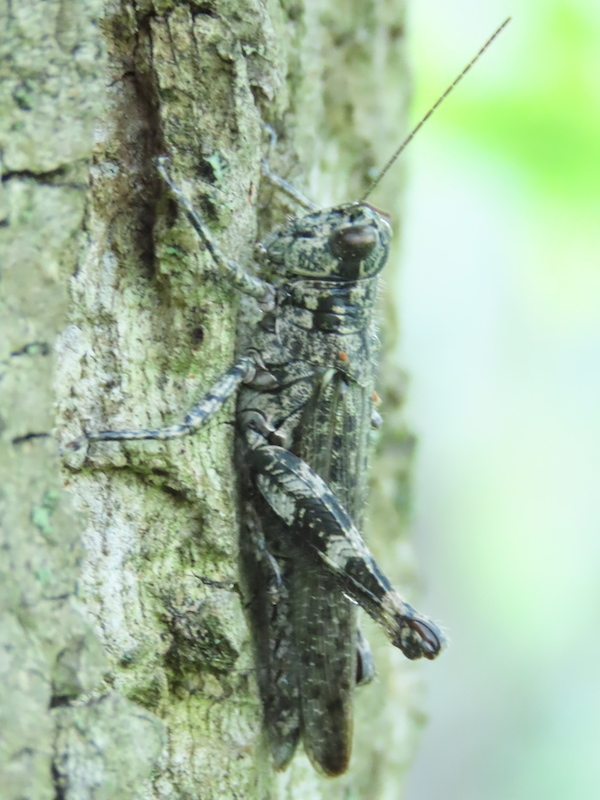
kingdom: Animalia
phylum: Arthropoda
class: Insecta
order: Orthoptera
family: Acrididae
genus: Melanoplus
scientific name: Melanoplus punctulatus
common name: Pine-tree spur-throat grasshopper
